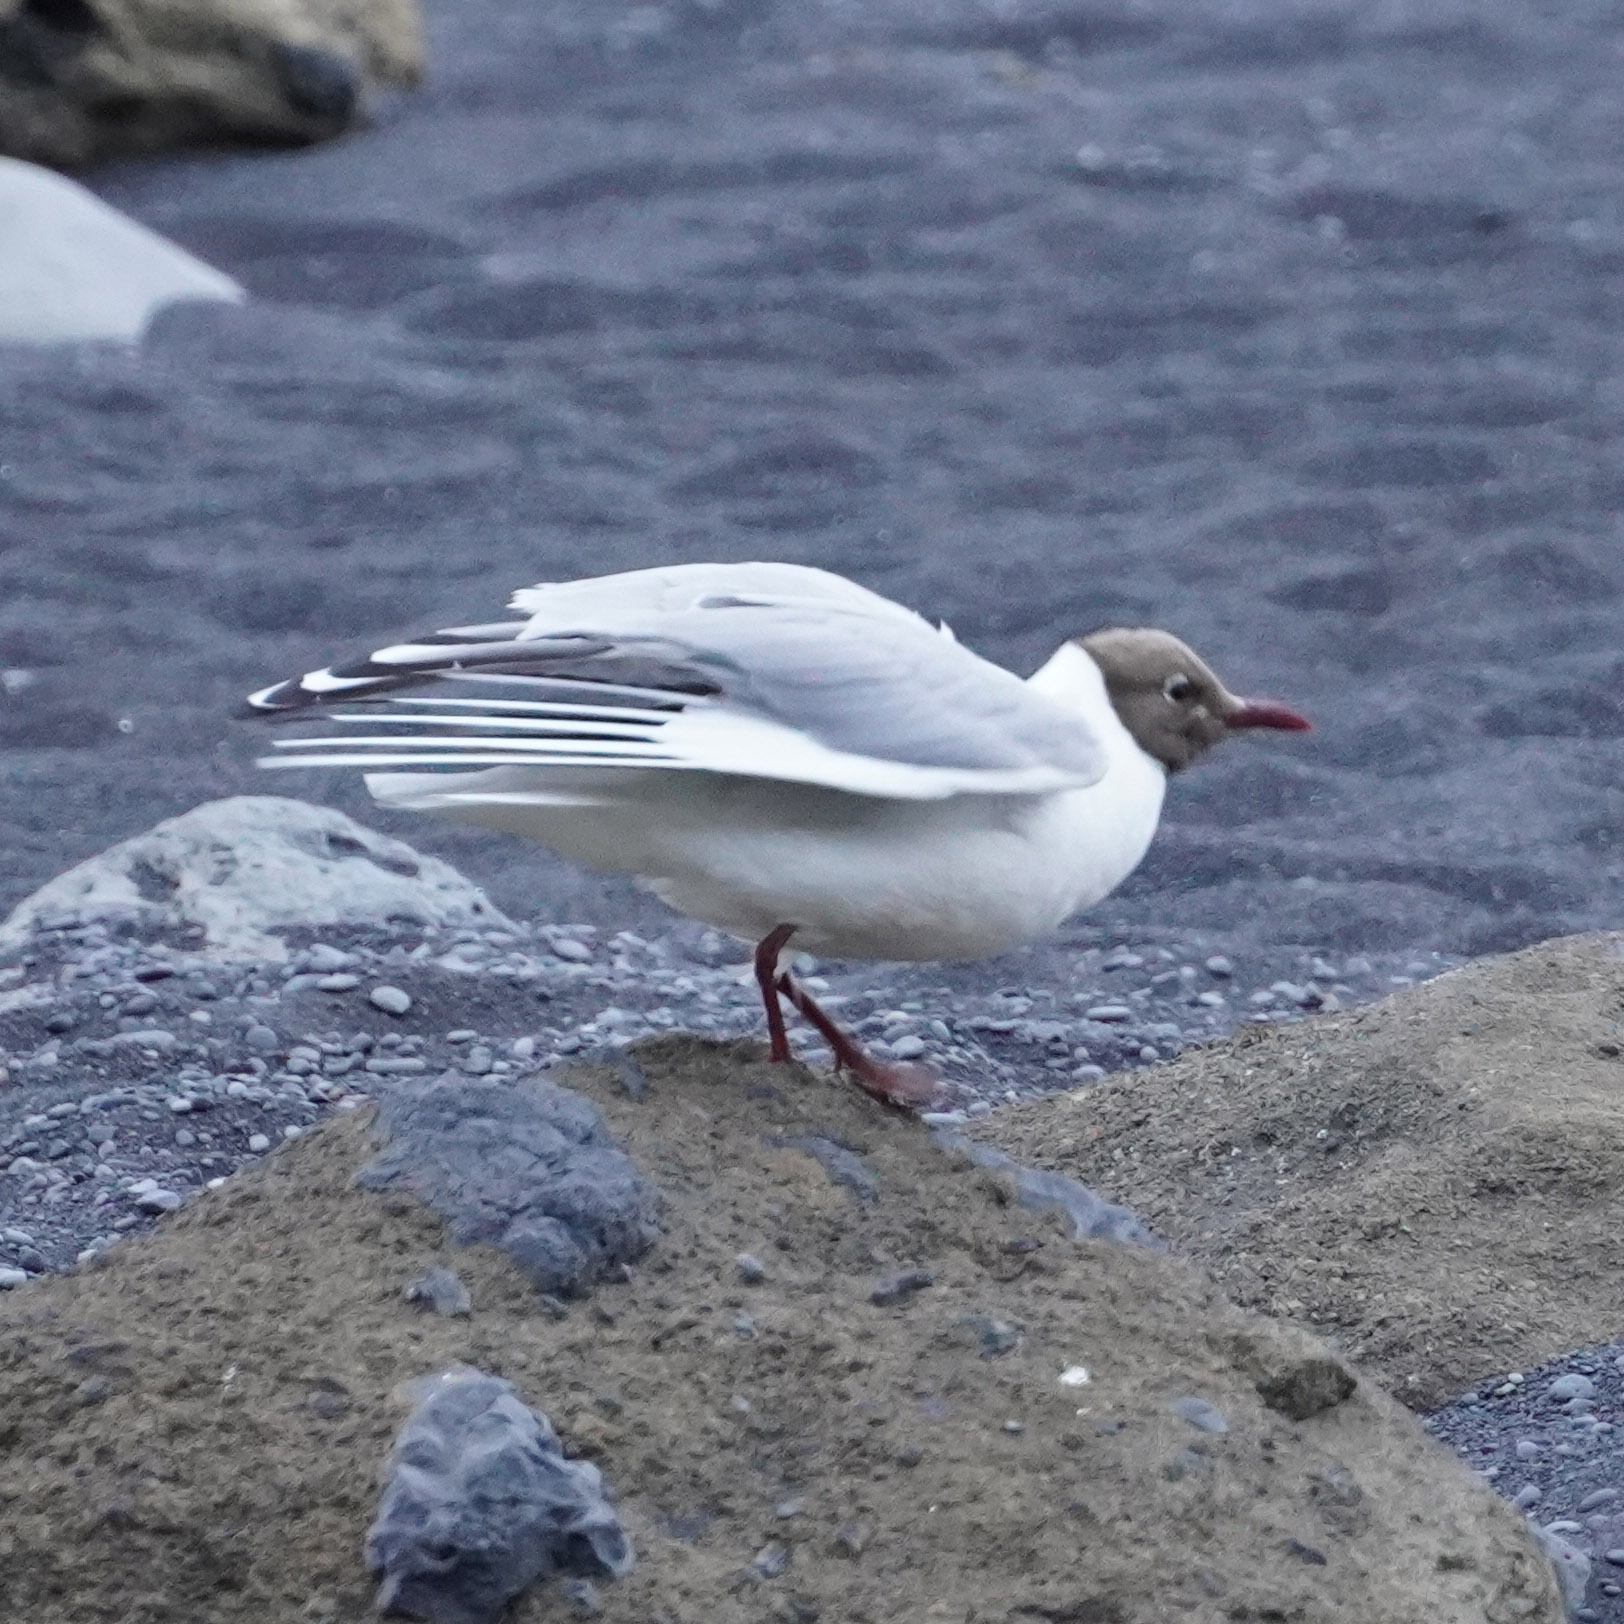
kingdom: Animalia
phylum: Chordata
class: Aves
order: Charadriiformes
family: Laridae
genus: Chroicocephalus
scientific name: Chroicocephalus ridibundus
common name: Black-headed gull
